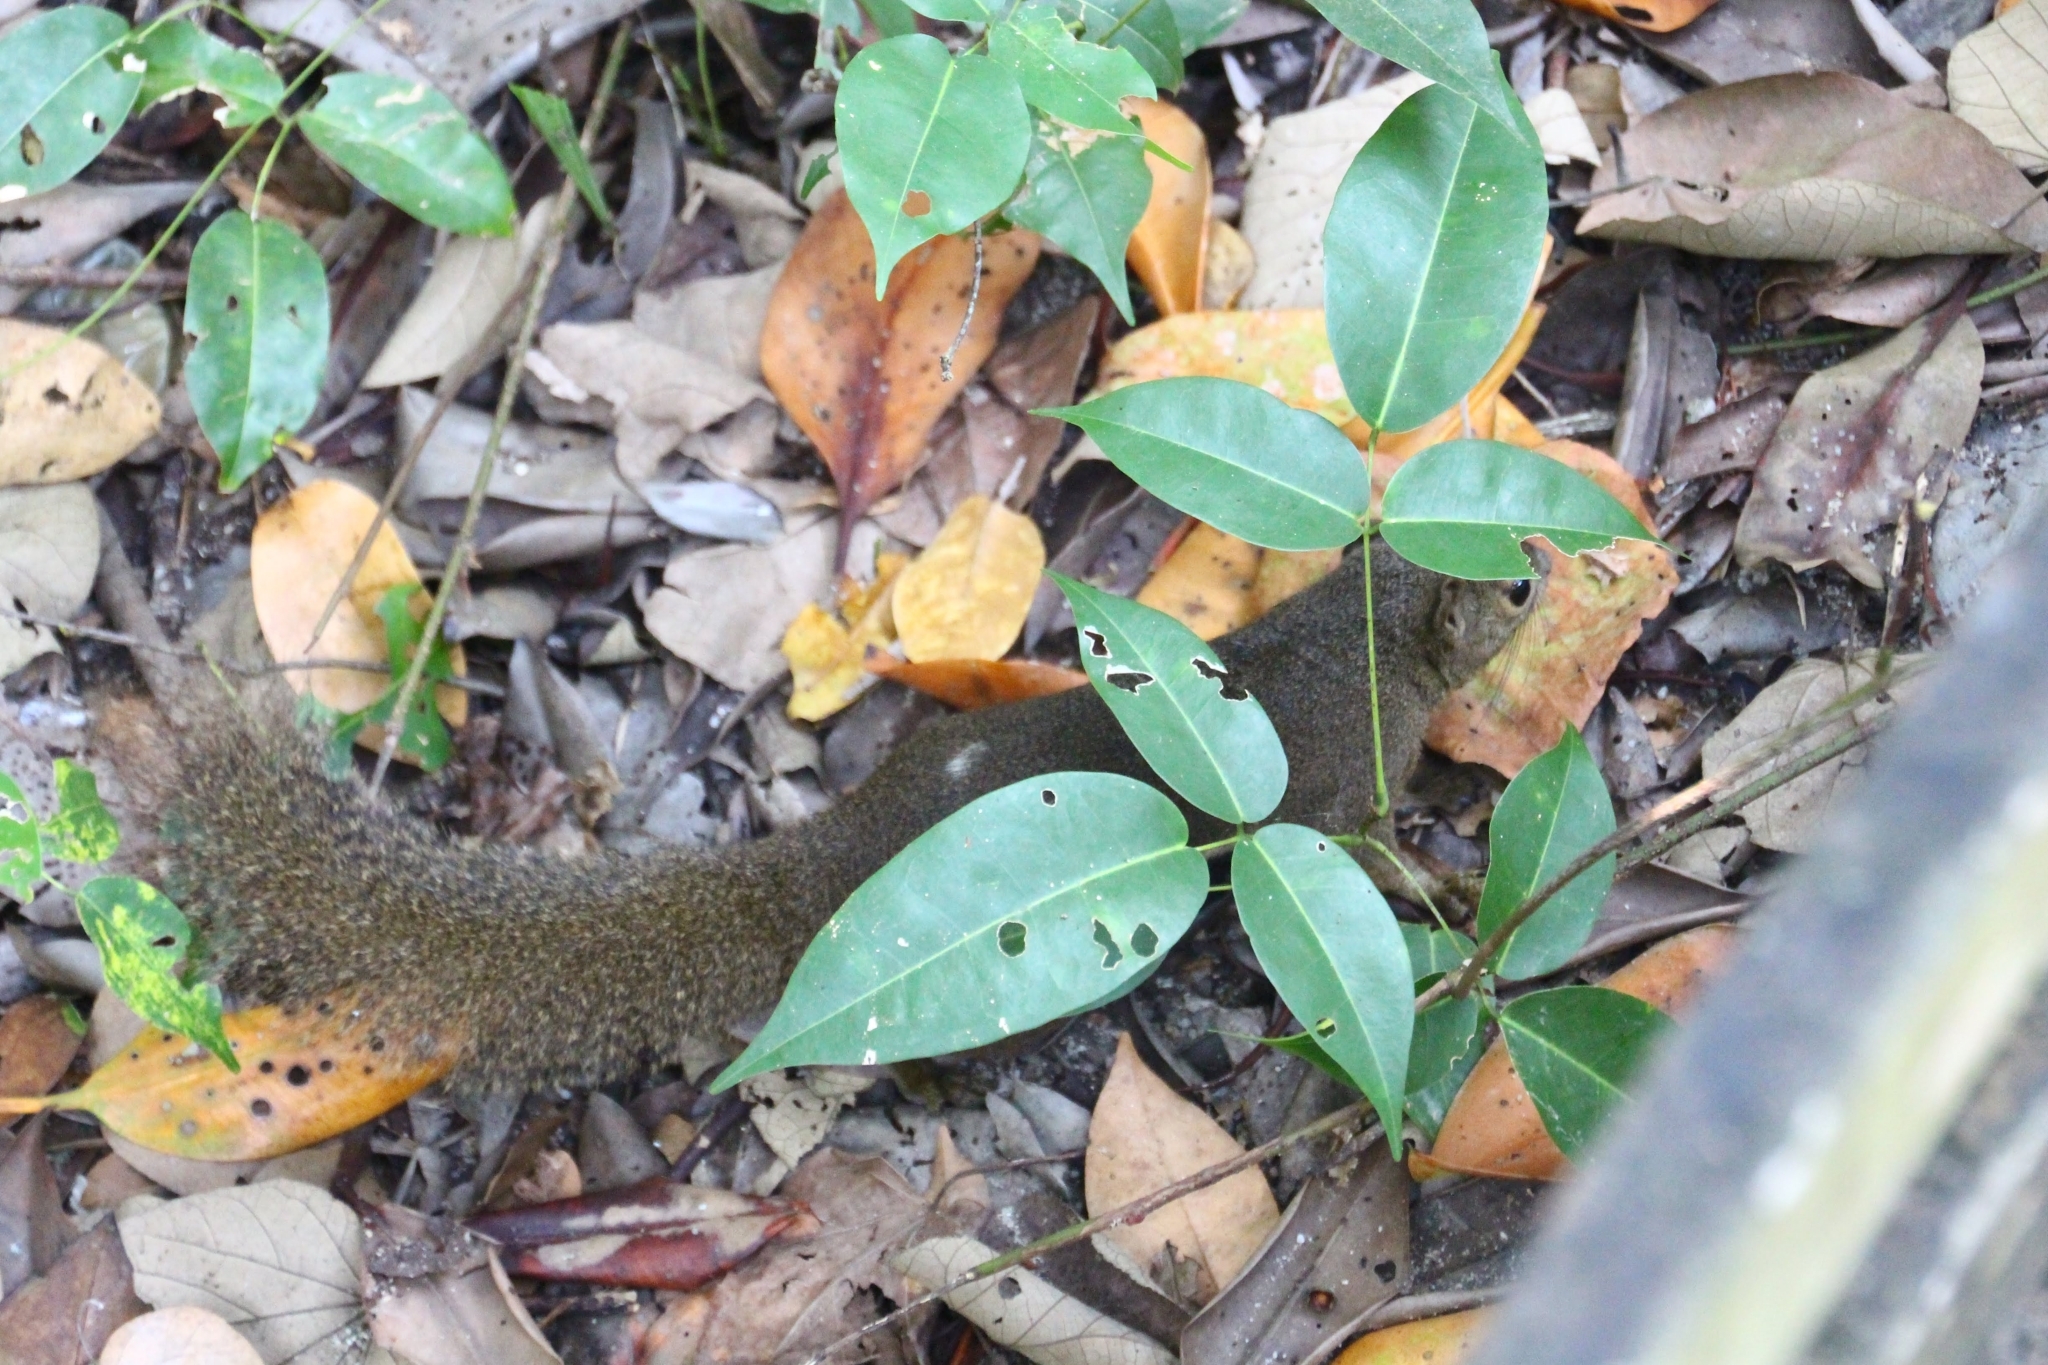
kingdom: Animalia
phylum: Chordata
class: Mammalia
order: Rodentia
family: Sciuridae
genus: Callosciurus
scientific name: Callosciurus notatus
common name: Plantain squirrel
